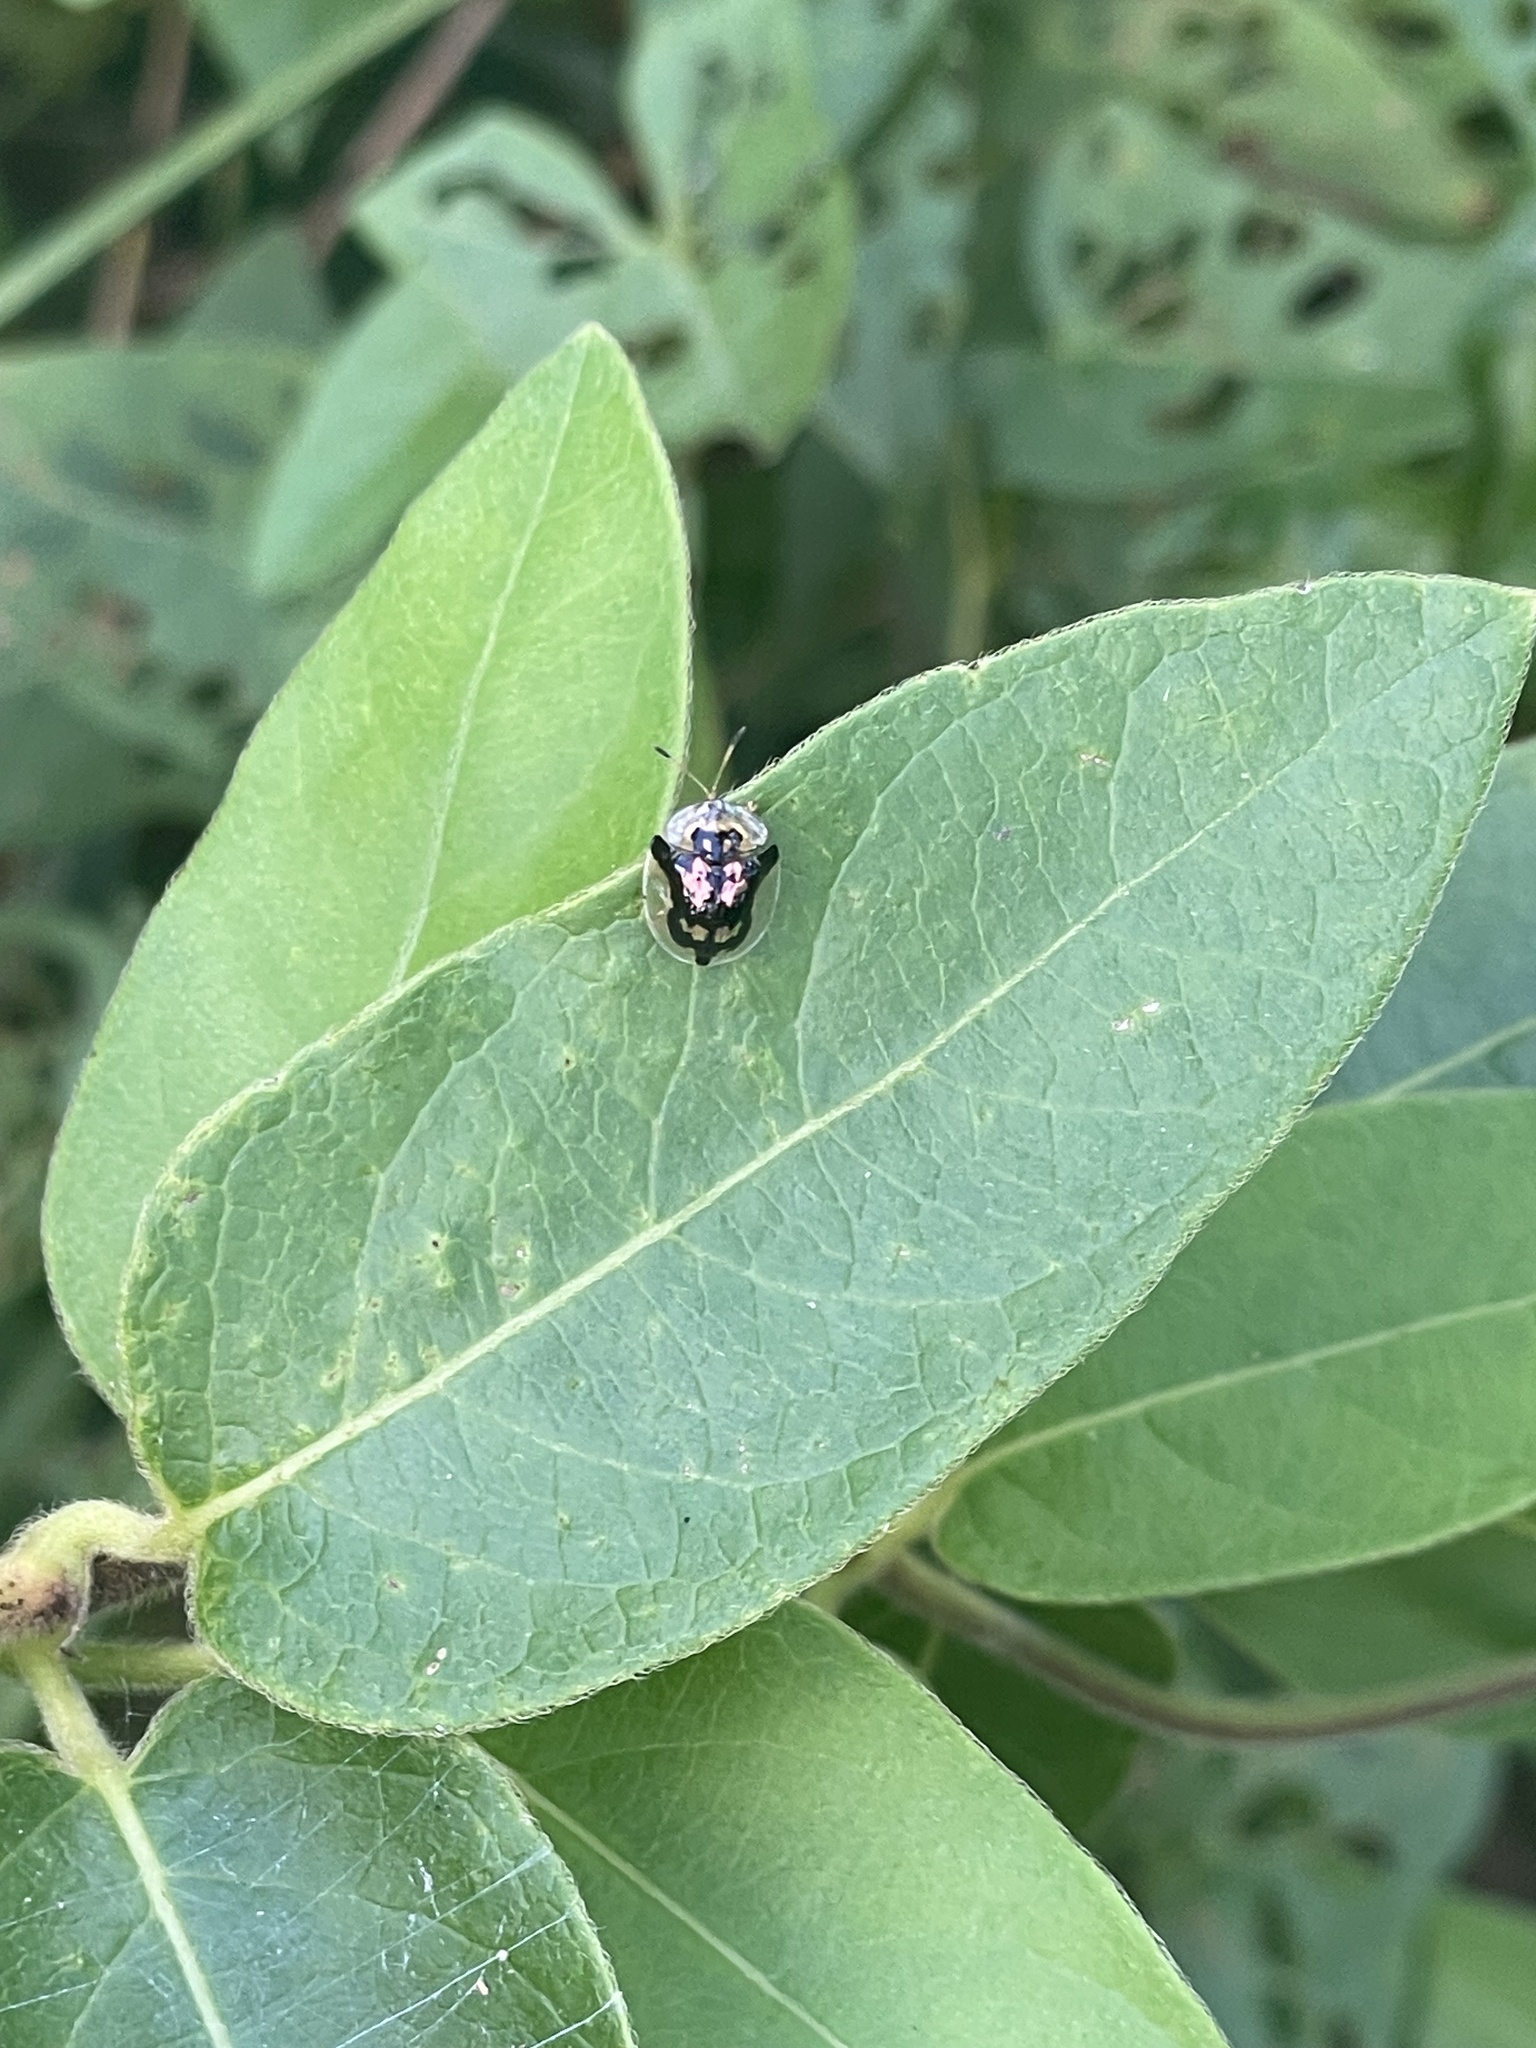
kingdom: Animalia
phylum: Arthropoda
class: Insecta
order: Coleoptera
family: Chrysomelidae
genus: Deloyala
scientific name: Deloyala guttata
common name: Mottled tortoise beetle
